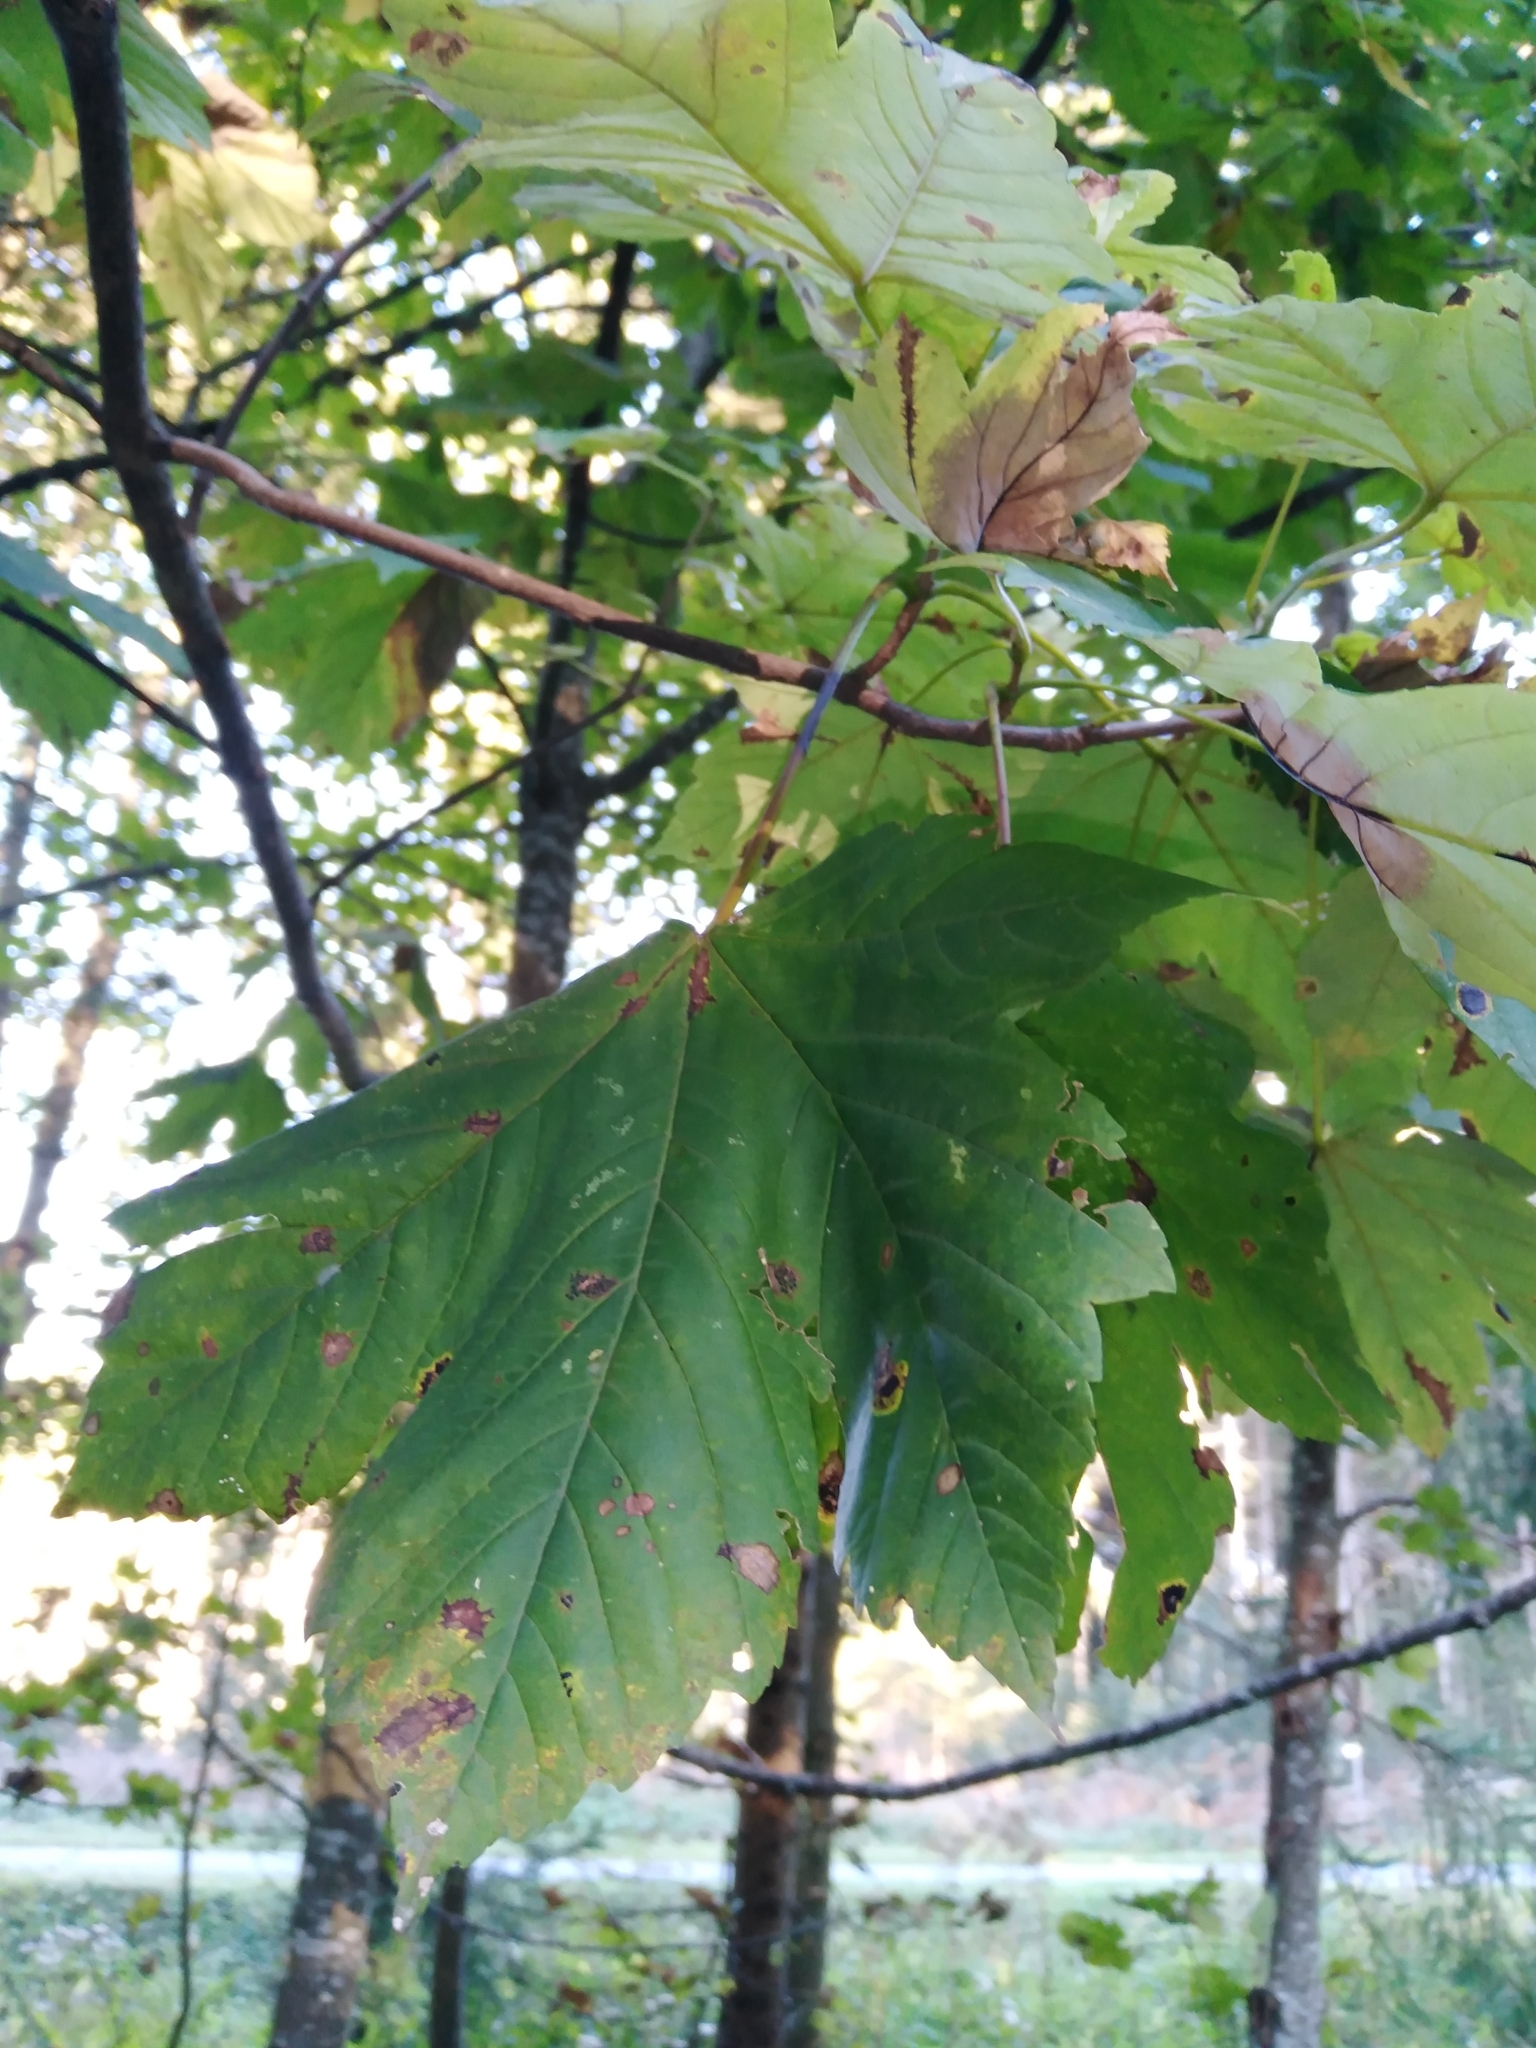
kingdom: Plantae
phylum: Tracheophyta
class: Magnoliopsida
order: Sapindales
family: Sapindaceae
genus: Acer
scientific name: Acer pseudoplatanus
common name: Sycamore
